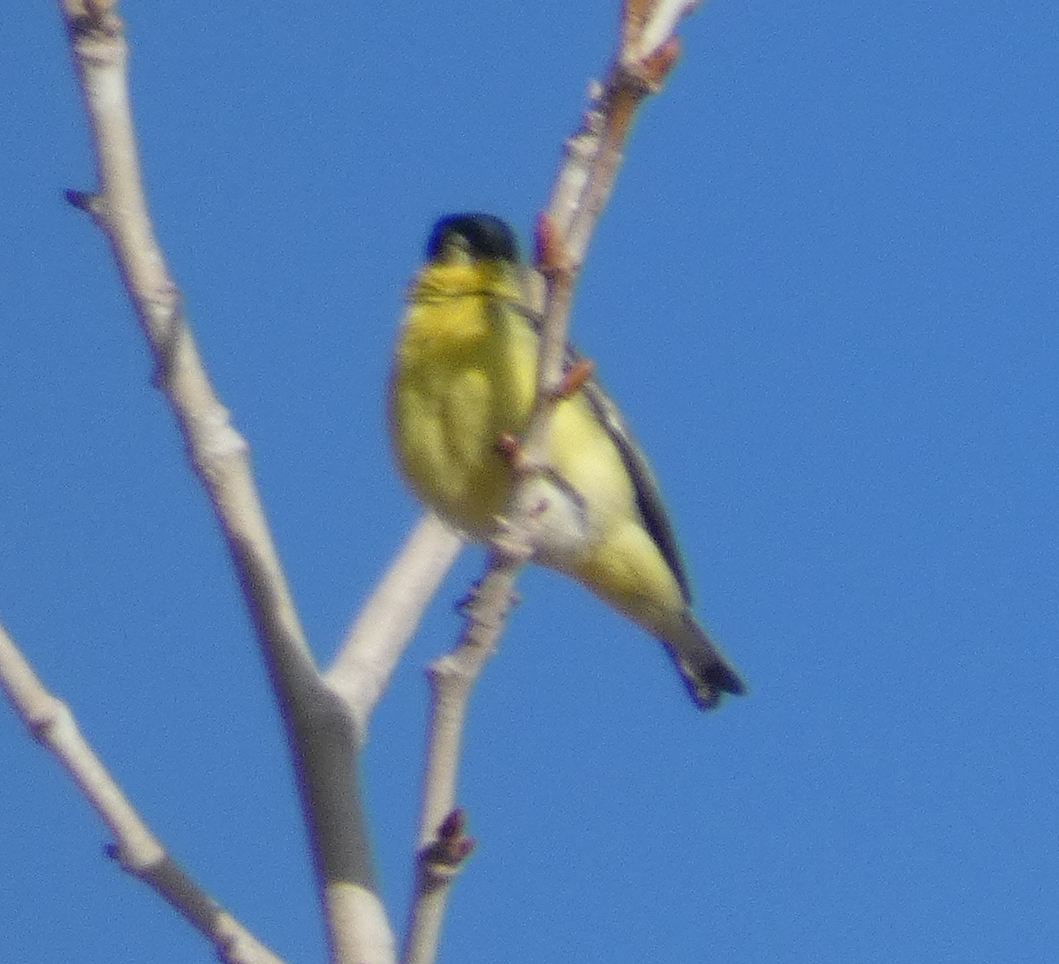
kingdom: Animalia
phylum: Chordata
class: Aves
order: Passeriformes
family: Fringillidae
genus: Spinus
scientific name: Spinus psaltria
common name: Lesser goldfinch
